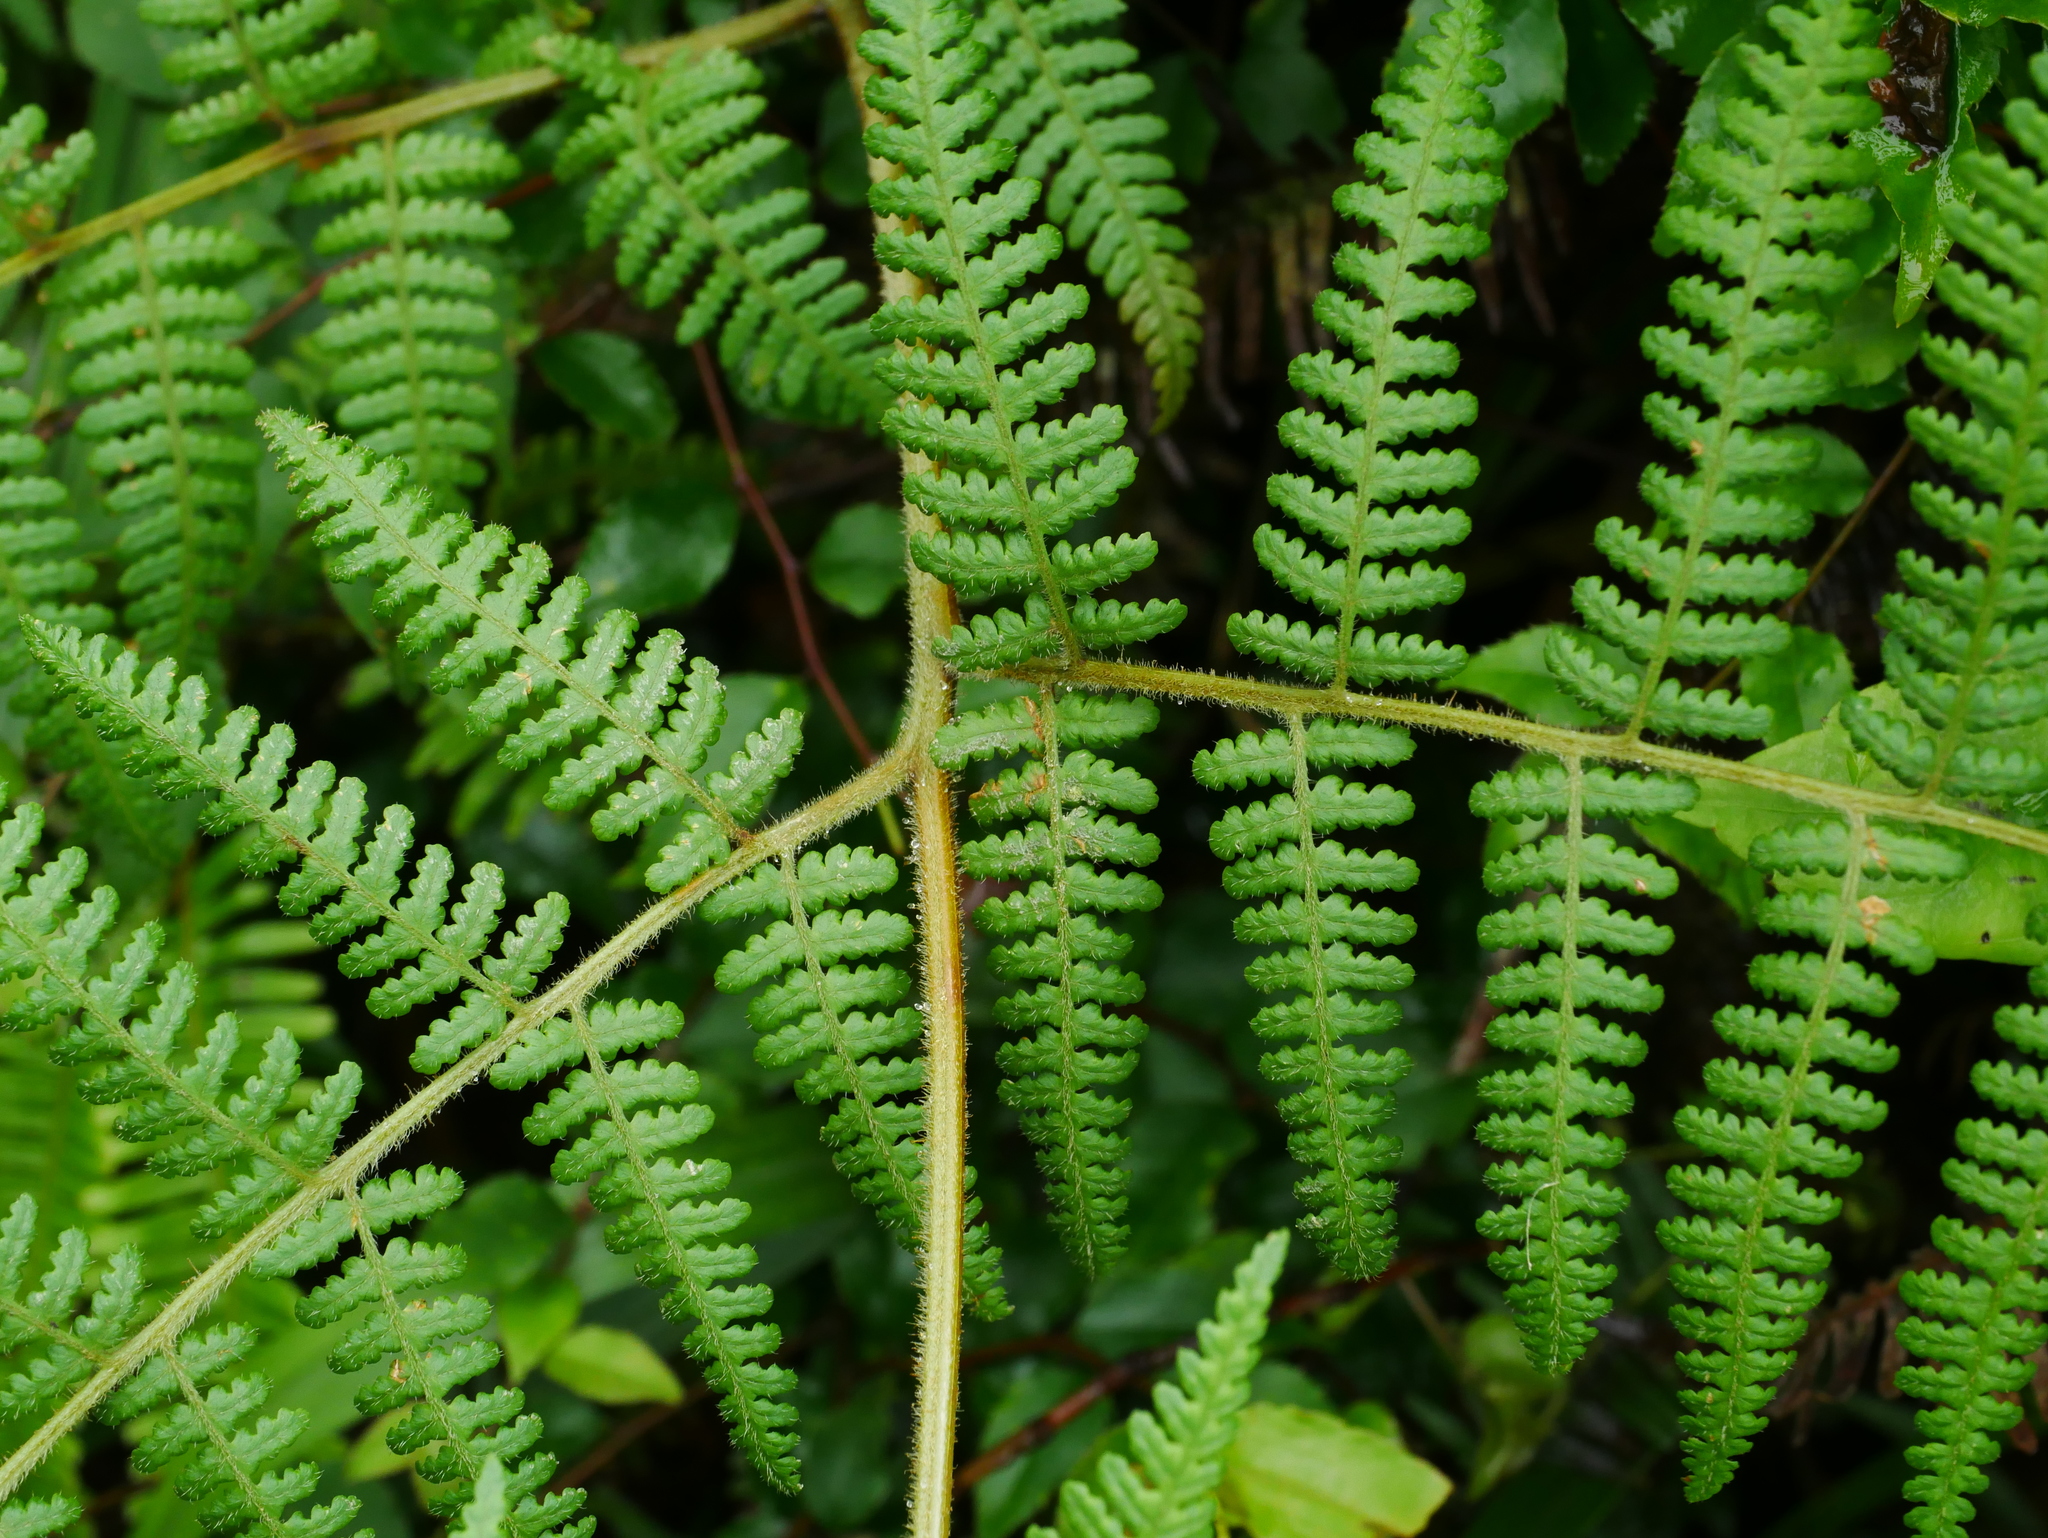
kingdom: Plantae
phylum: Tracheophyta
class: Polypodiopsida
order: Polypodiales
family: Dennstaedtiaceae
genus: Hypolepis
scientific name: Hypolepis alpina
